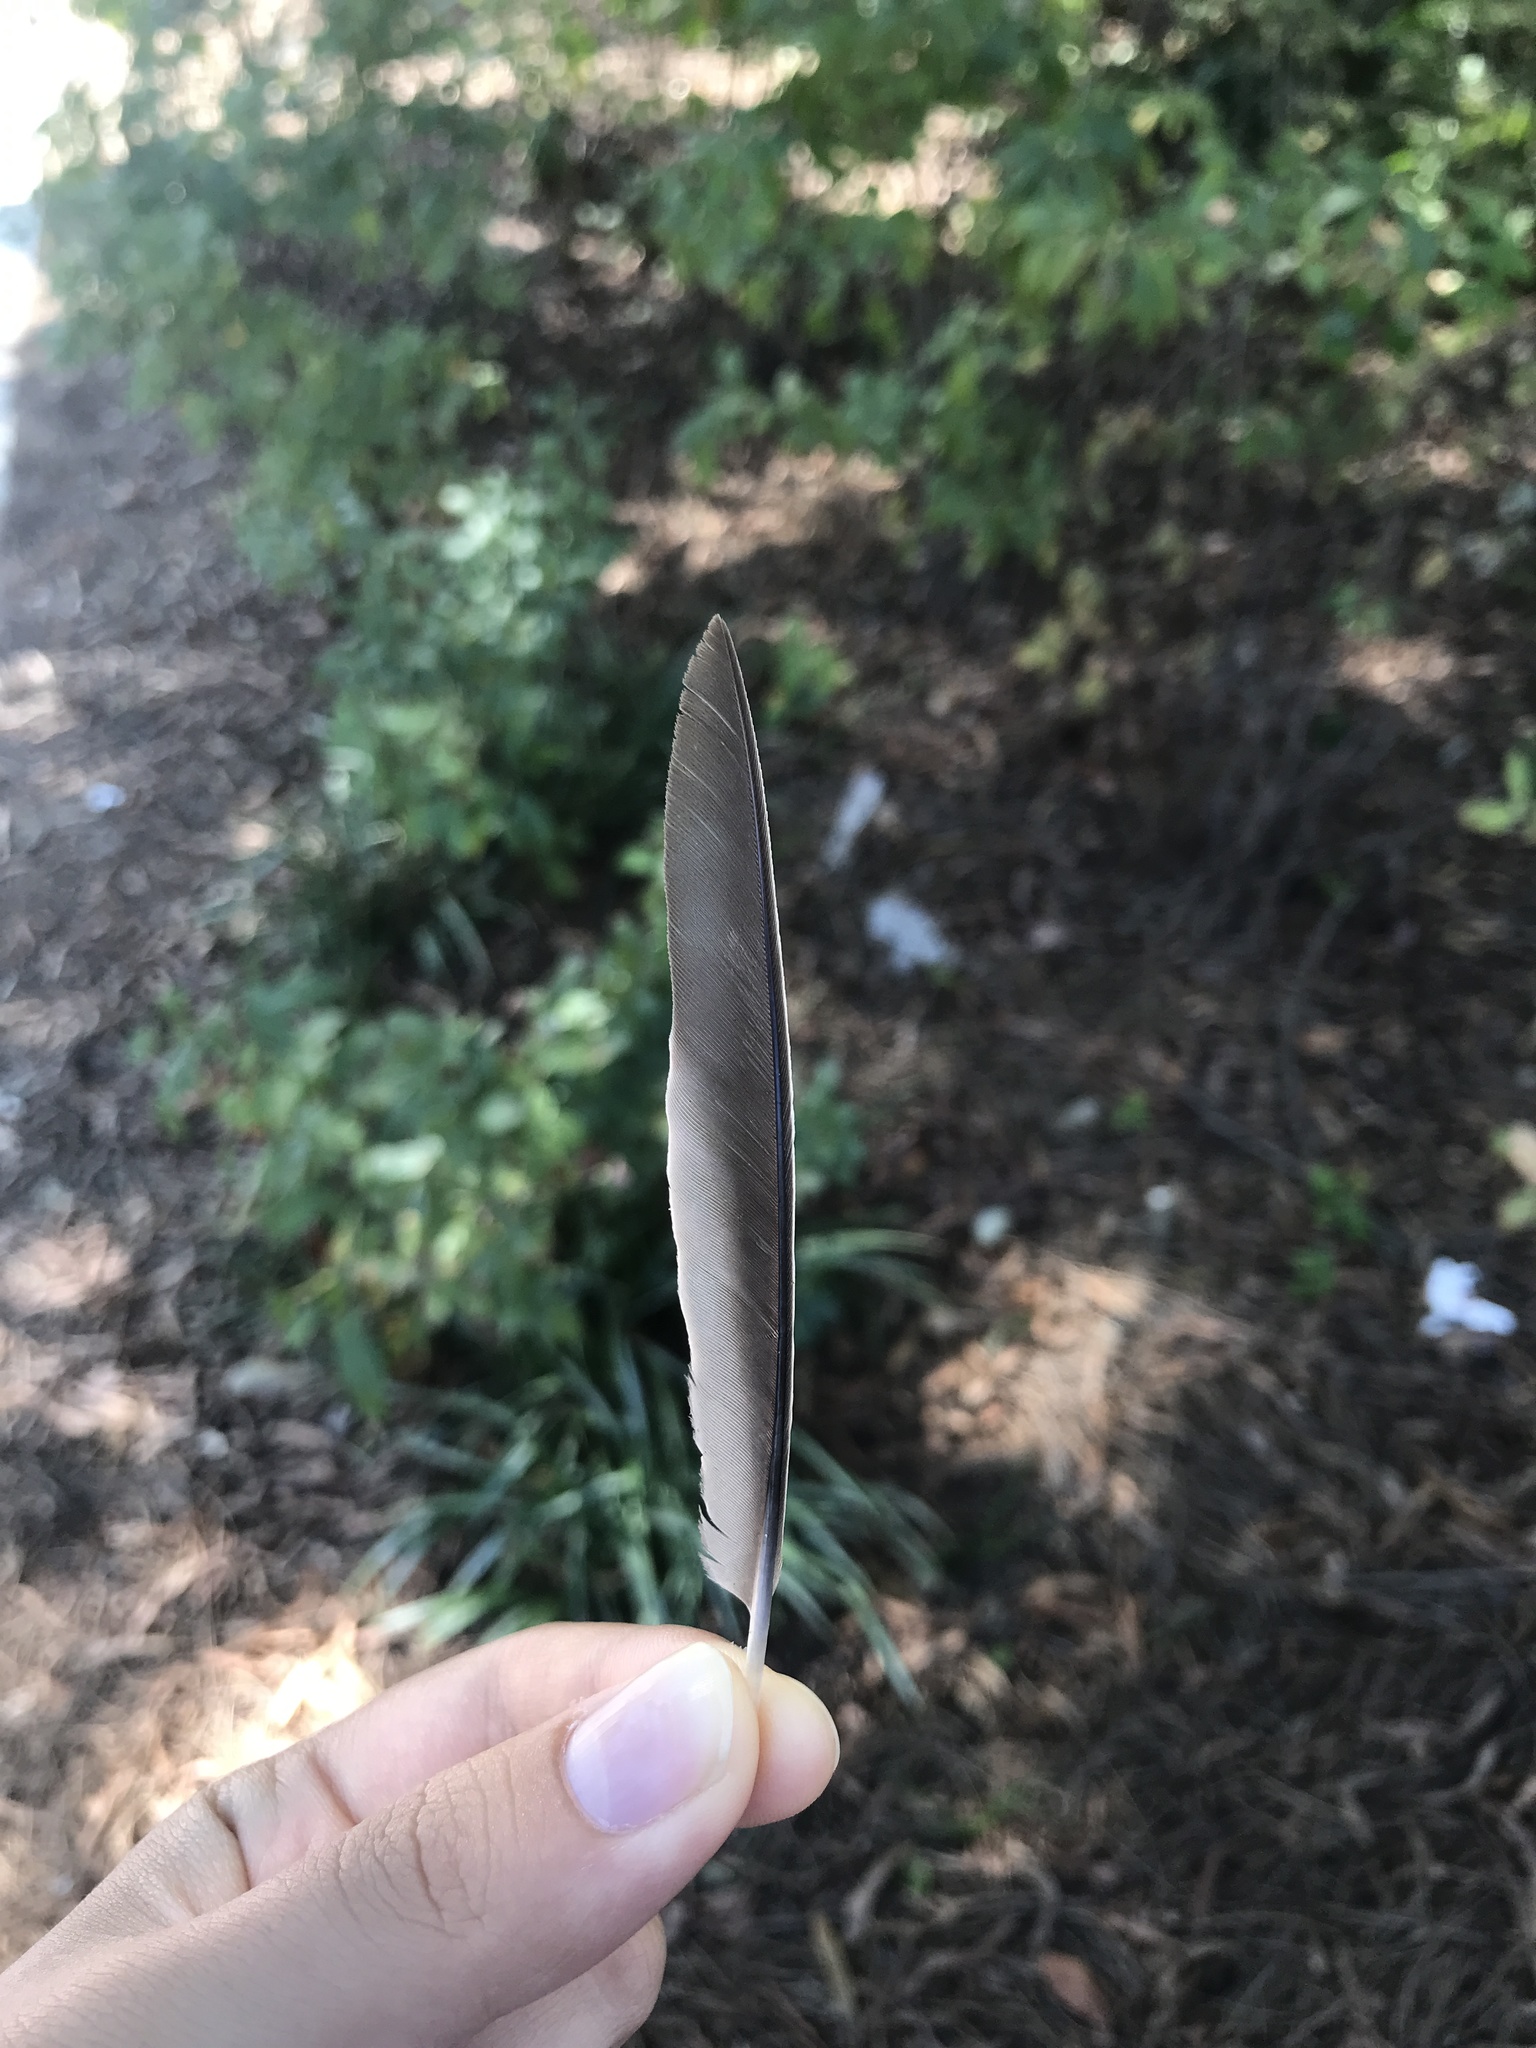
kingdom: Animalia
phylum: Chordata
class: Aves
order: Passeriformes
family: Turdidae
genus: Turdus
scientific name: Turdus migratorius
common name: American robin
